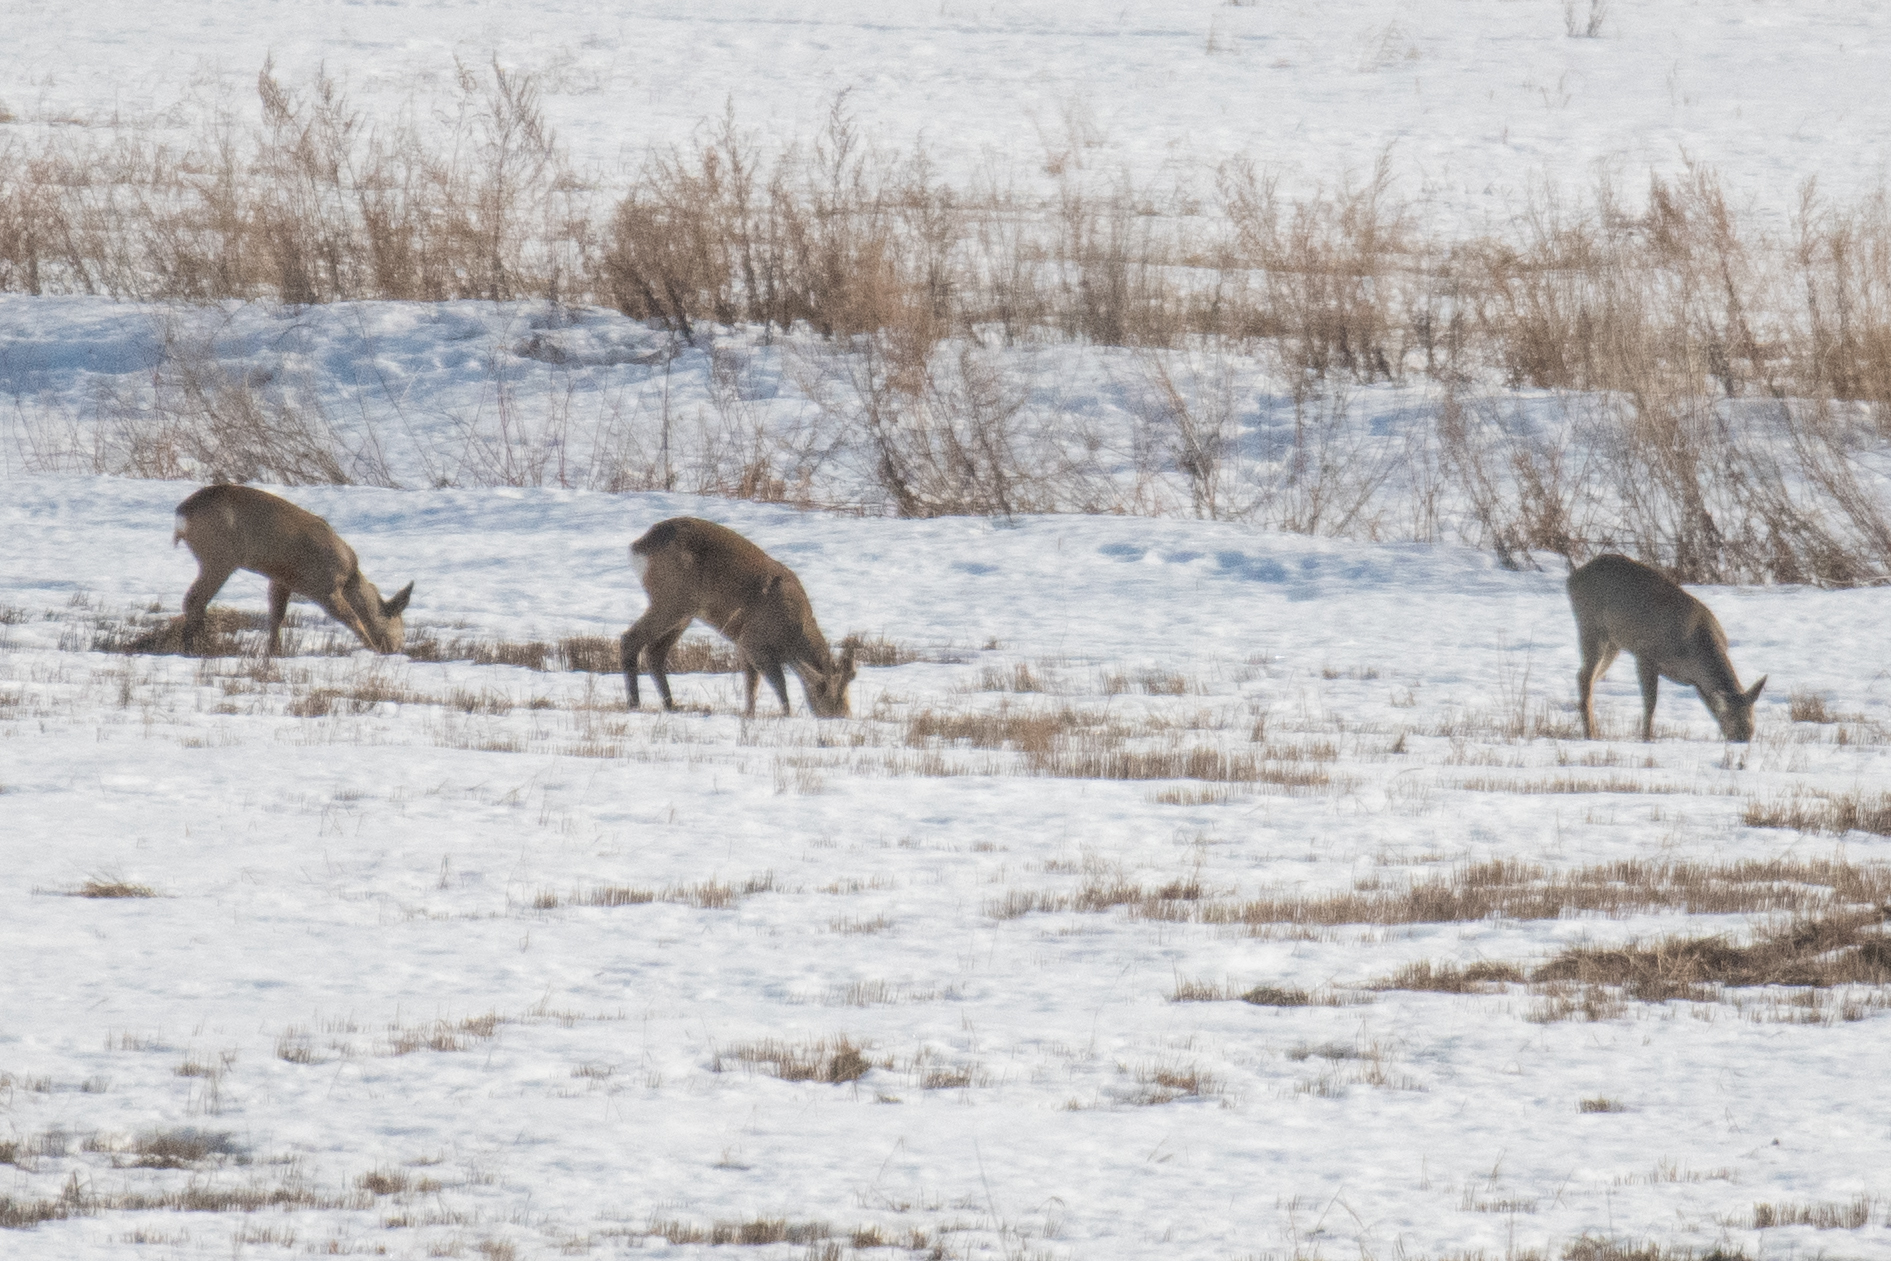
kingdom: Animalia
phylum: Chordata
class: Mammalia
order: Artiodactyla
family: Cervidae
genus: Capreolus
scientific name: Capreolus capreolus
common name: Western roe deer
